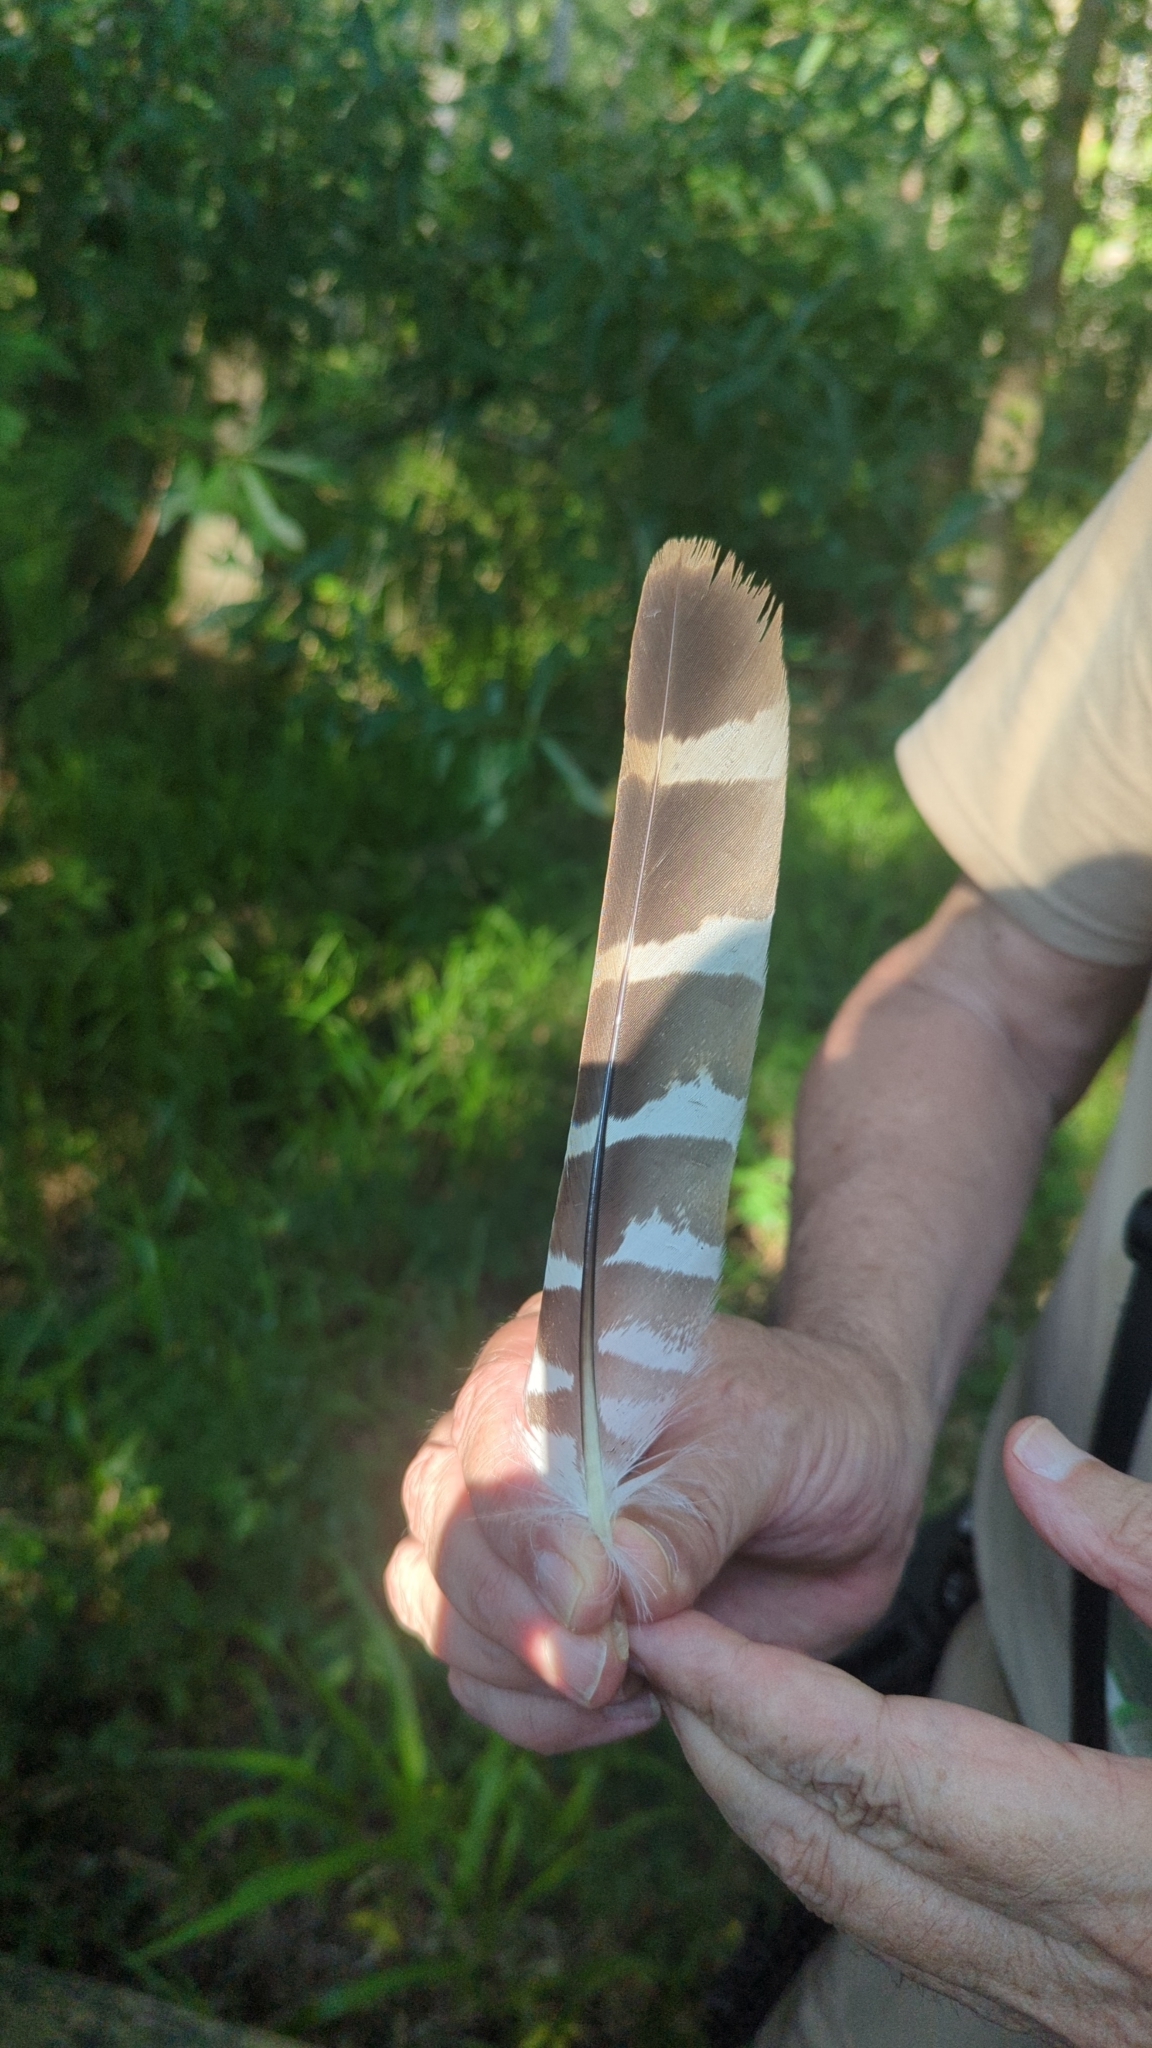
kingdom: Animalia
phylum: Chordata
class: Aves
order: Accipitriformes
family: Accipitridae
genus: Buteo
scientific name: Buteo lineatus
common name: Red-shouldered hawk
